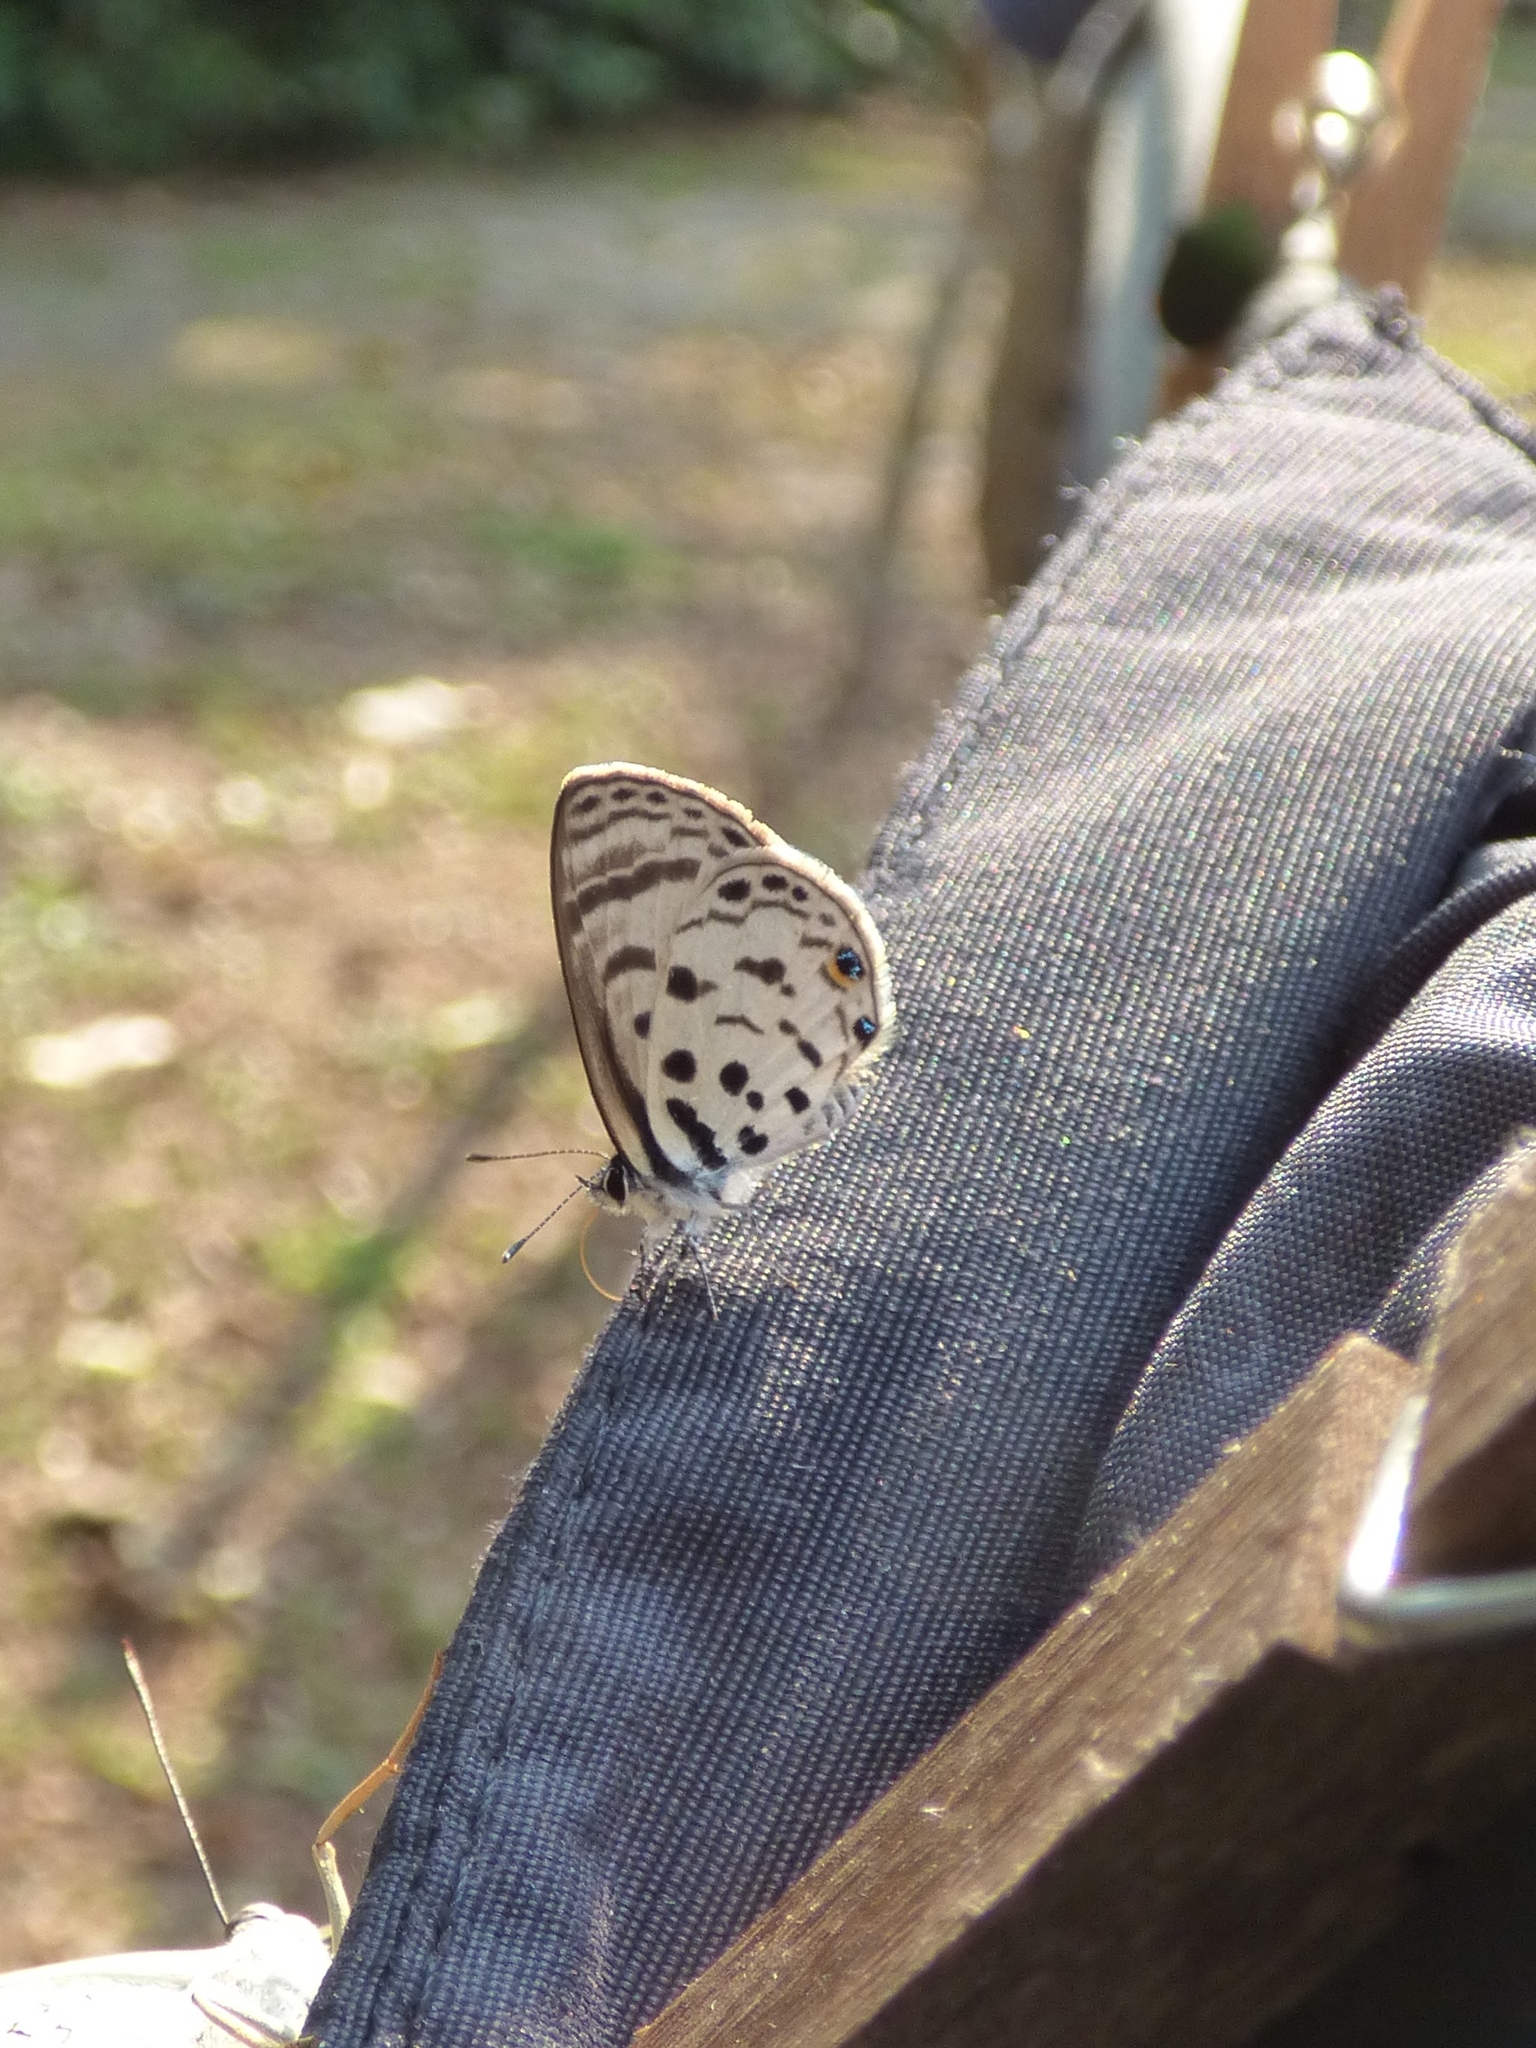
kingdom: Animalia
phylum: Arthropoda
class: Insecta
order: Lepidoptera
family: Lycaenidae
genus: Azanus
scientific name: Azanus mirza
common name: Mirza babul blue
